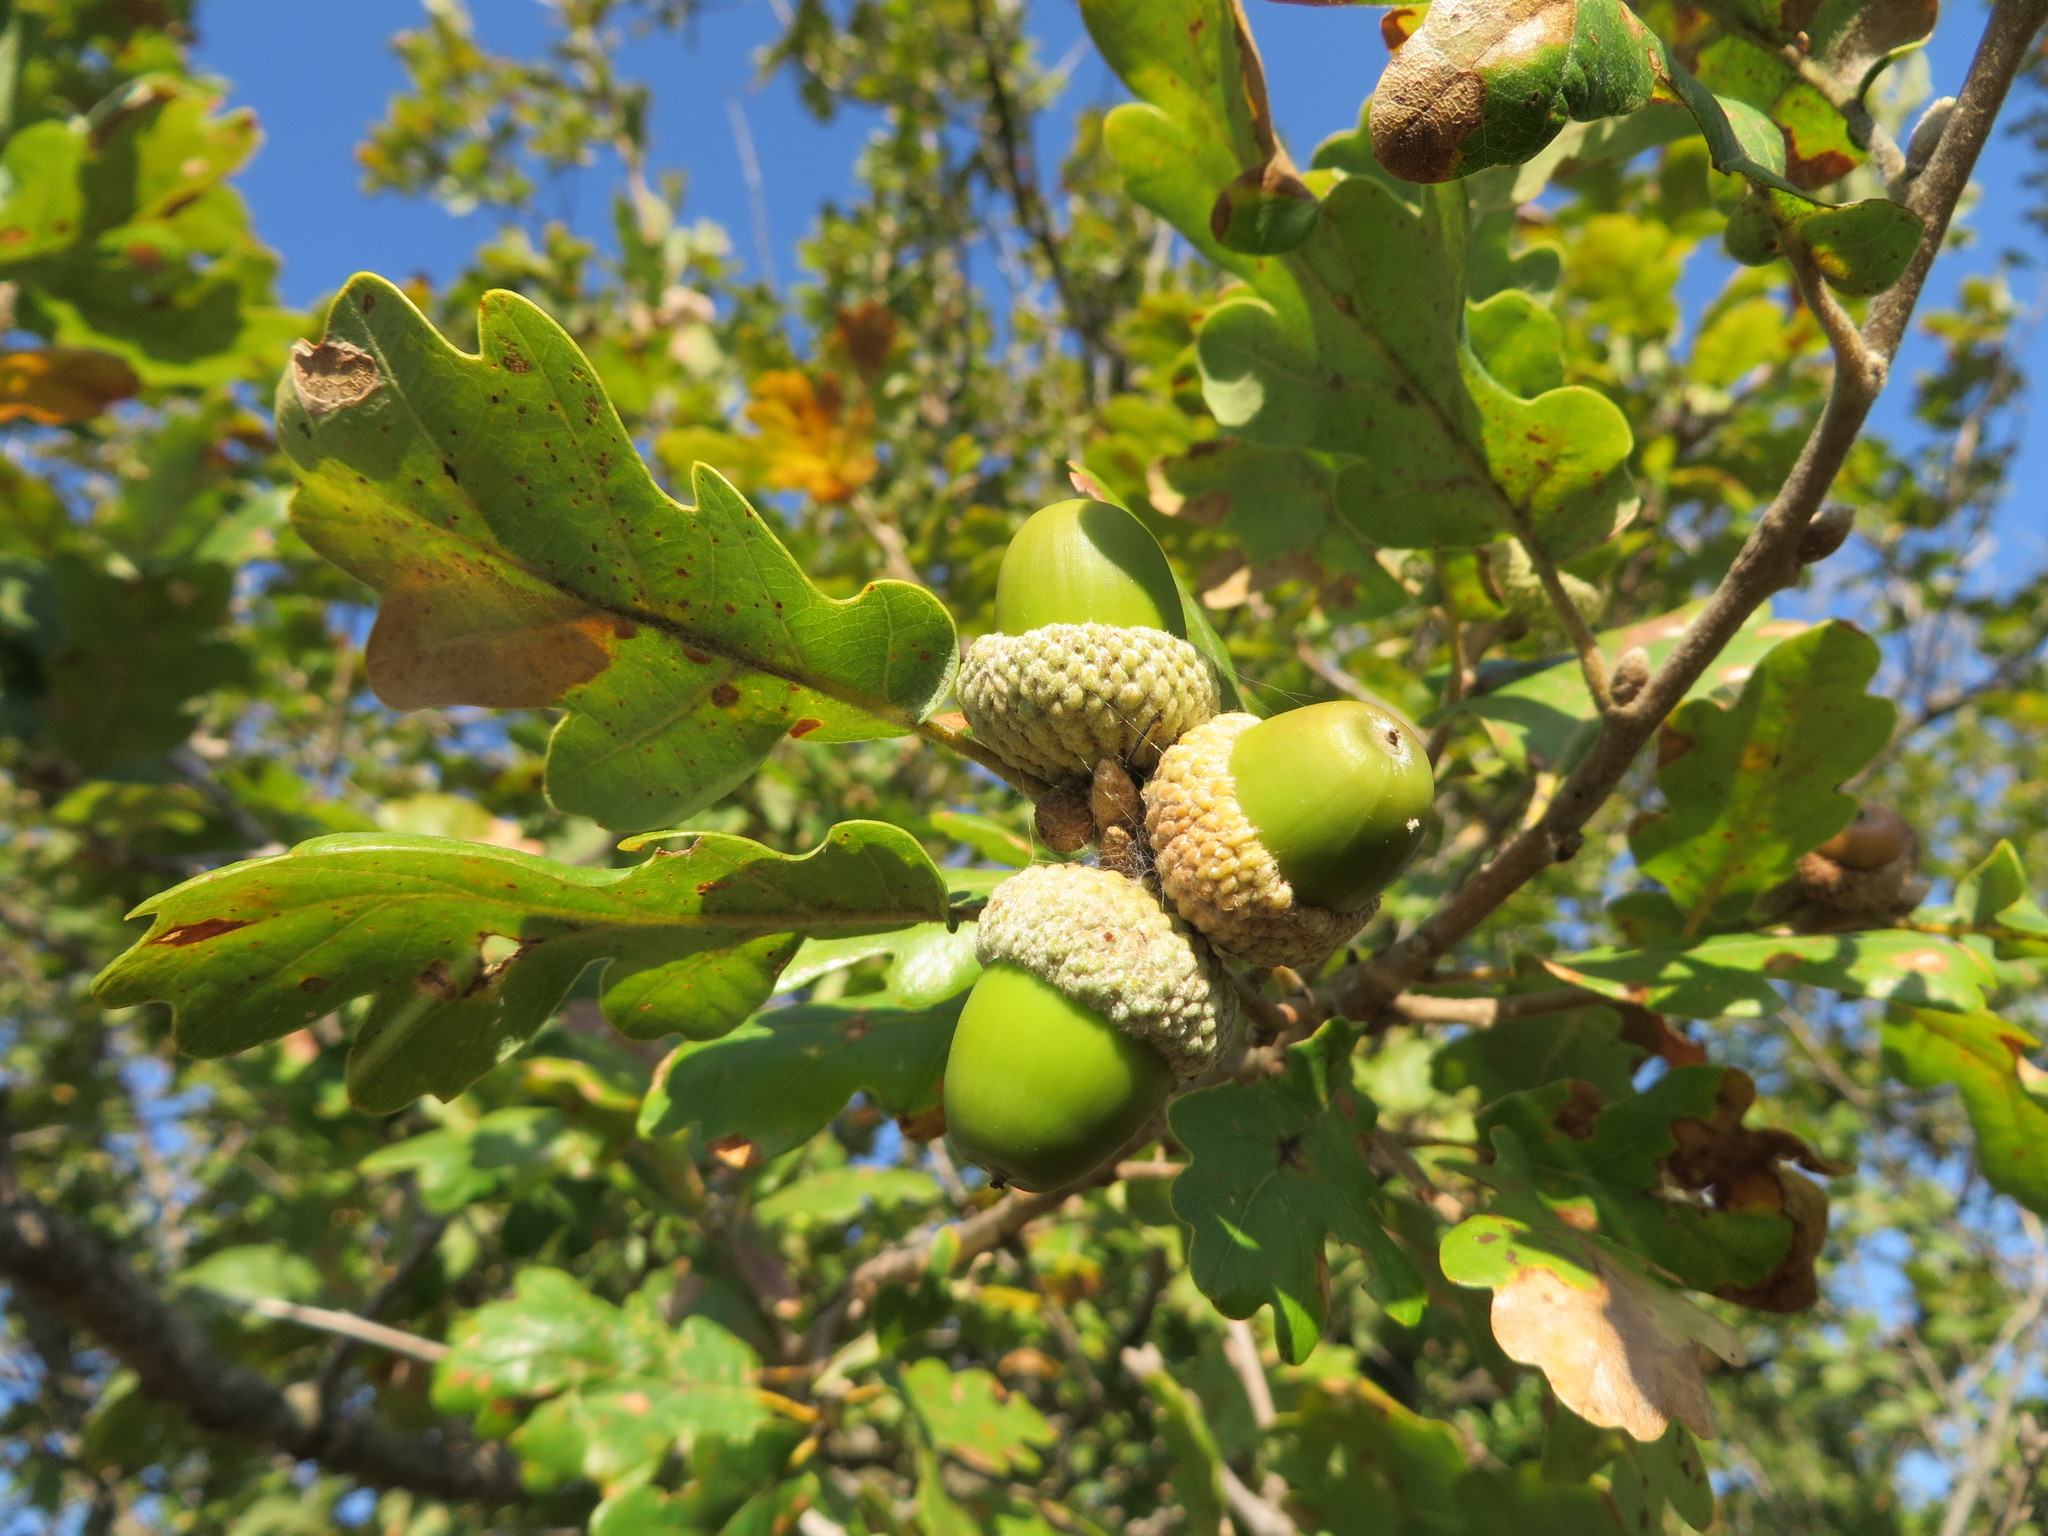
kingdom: Plantae
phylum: Tracheophyta
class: Magnoliopsida
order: Fagales
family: Fagaceae
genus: Quercus
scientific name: Quercus pubescens
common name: Downy oak
